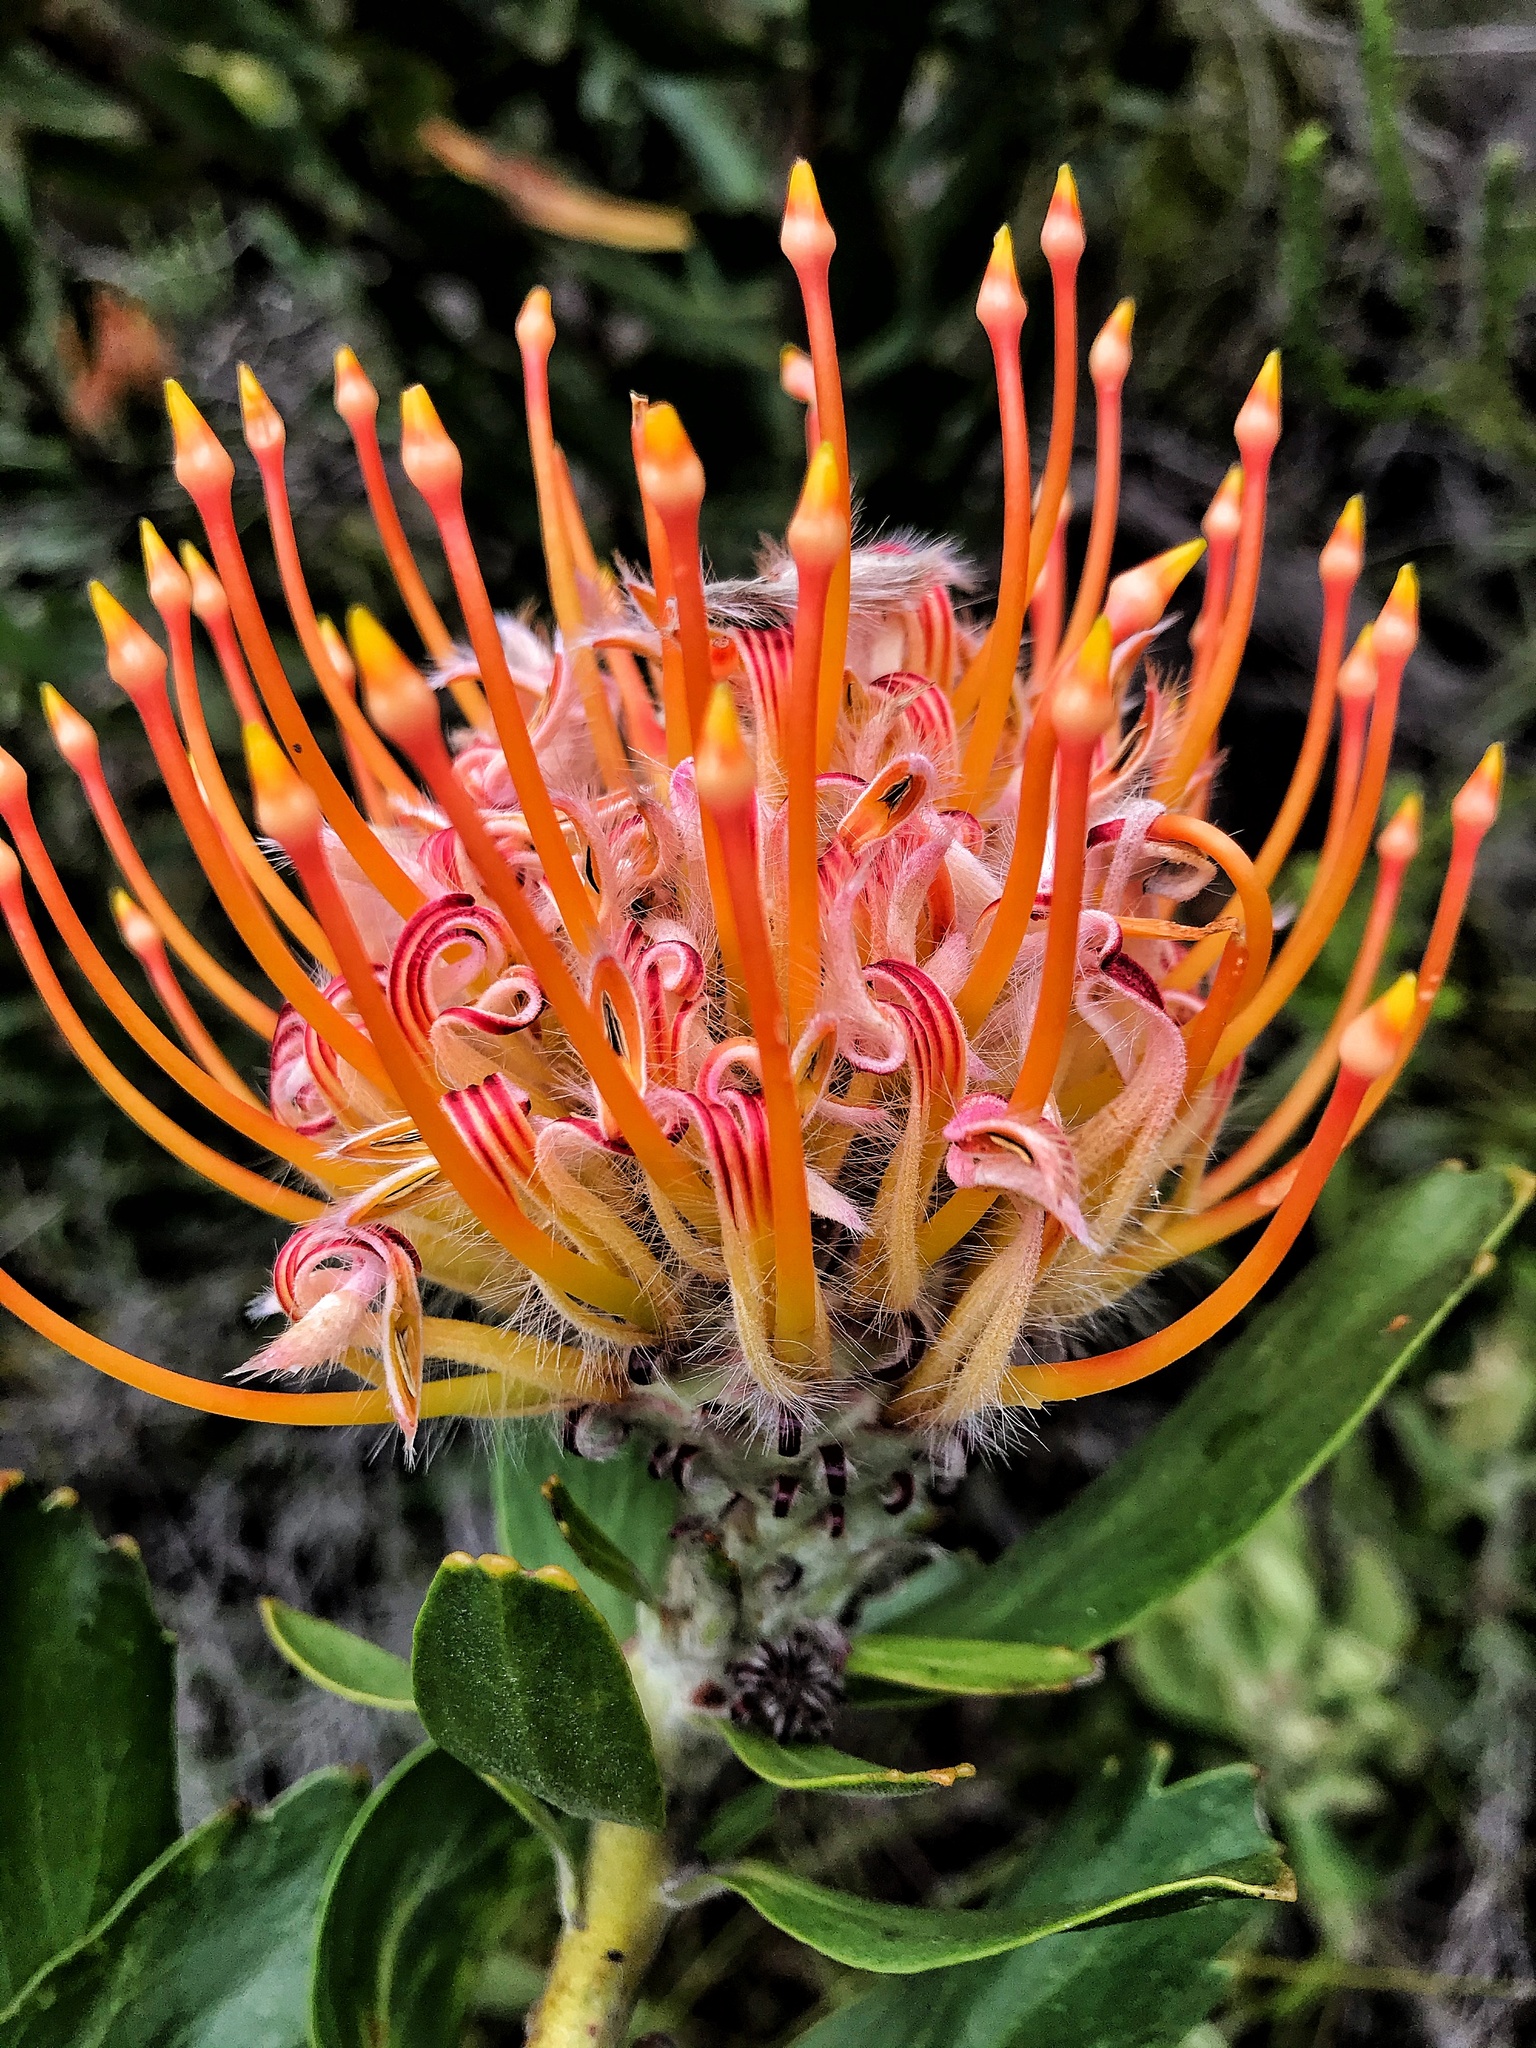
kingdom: Plantae
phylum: Tracheophyta
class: Magnoliopsida
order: Proteales
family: Proteaceae
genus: Leucospermum
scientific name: Leucospermum glabrum
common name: Outeniqua pincushion
